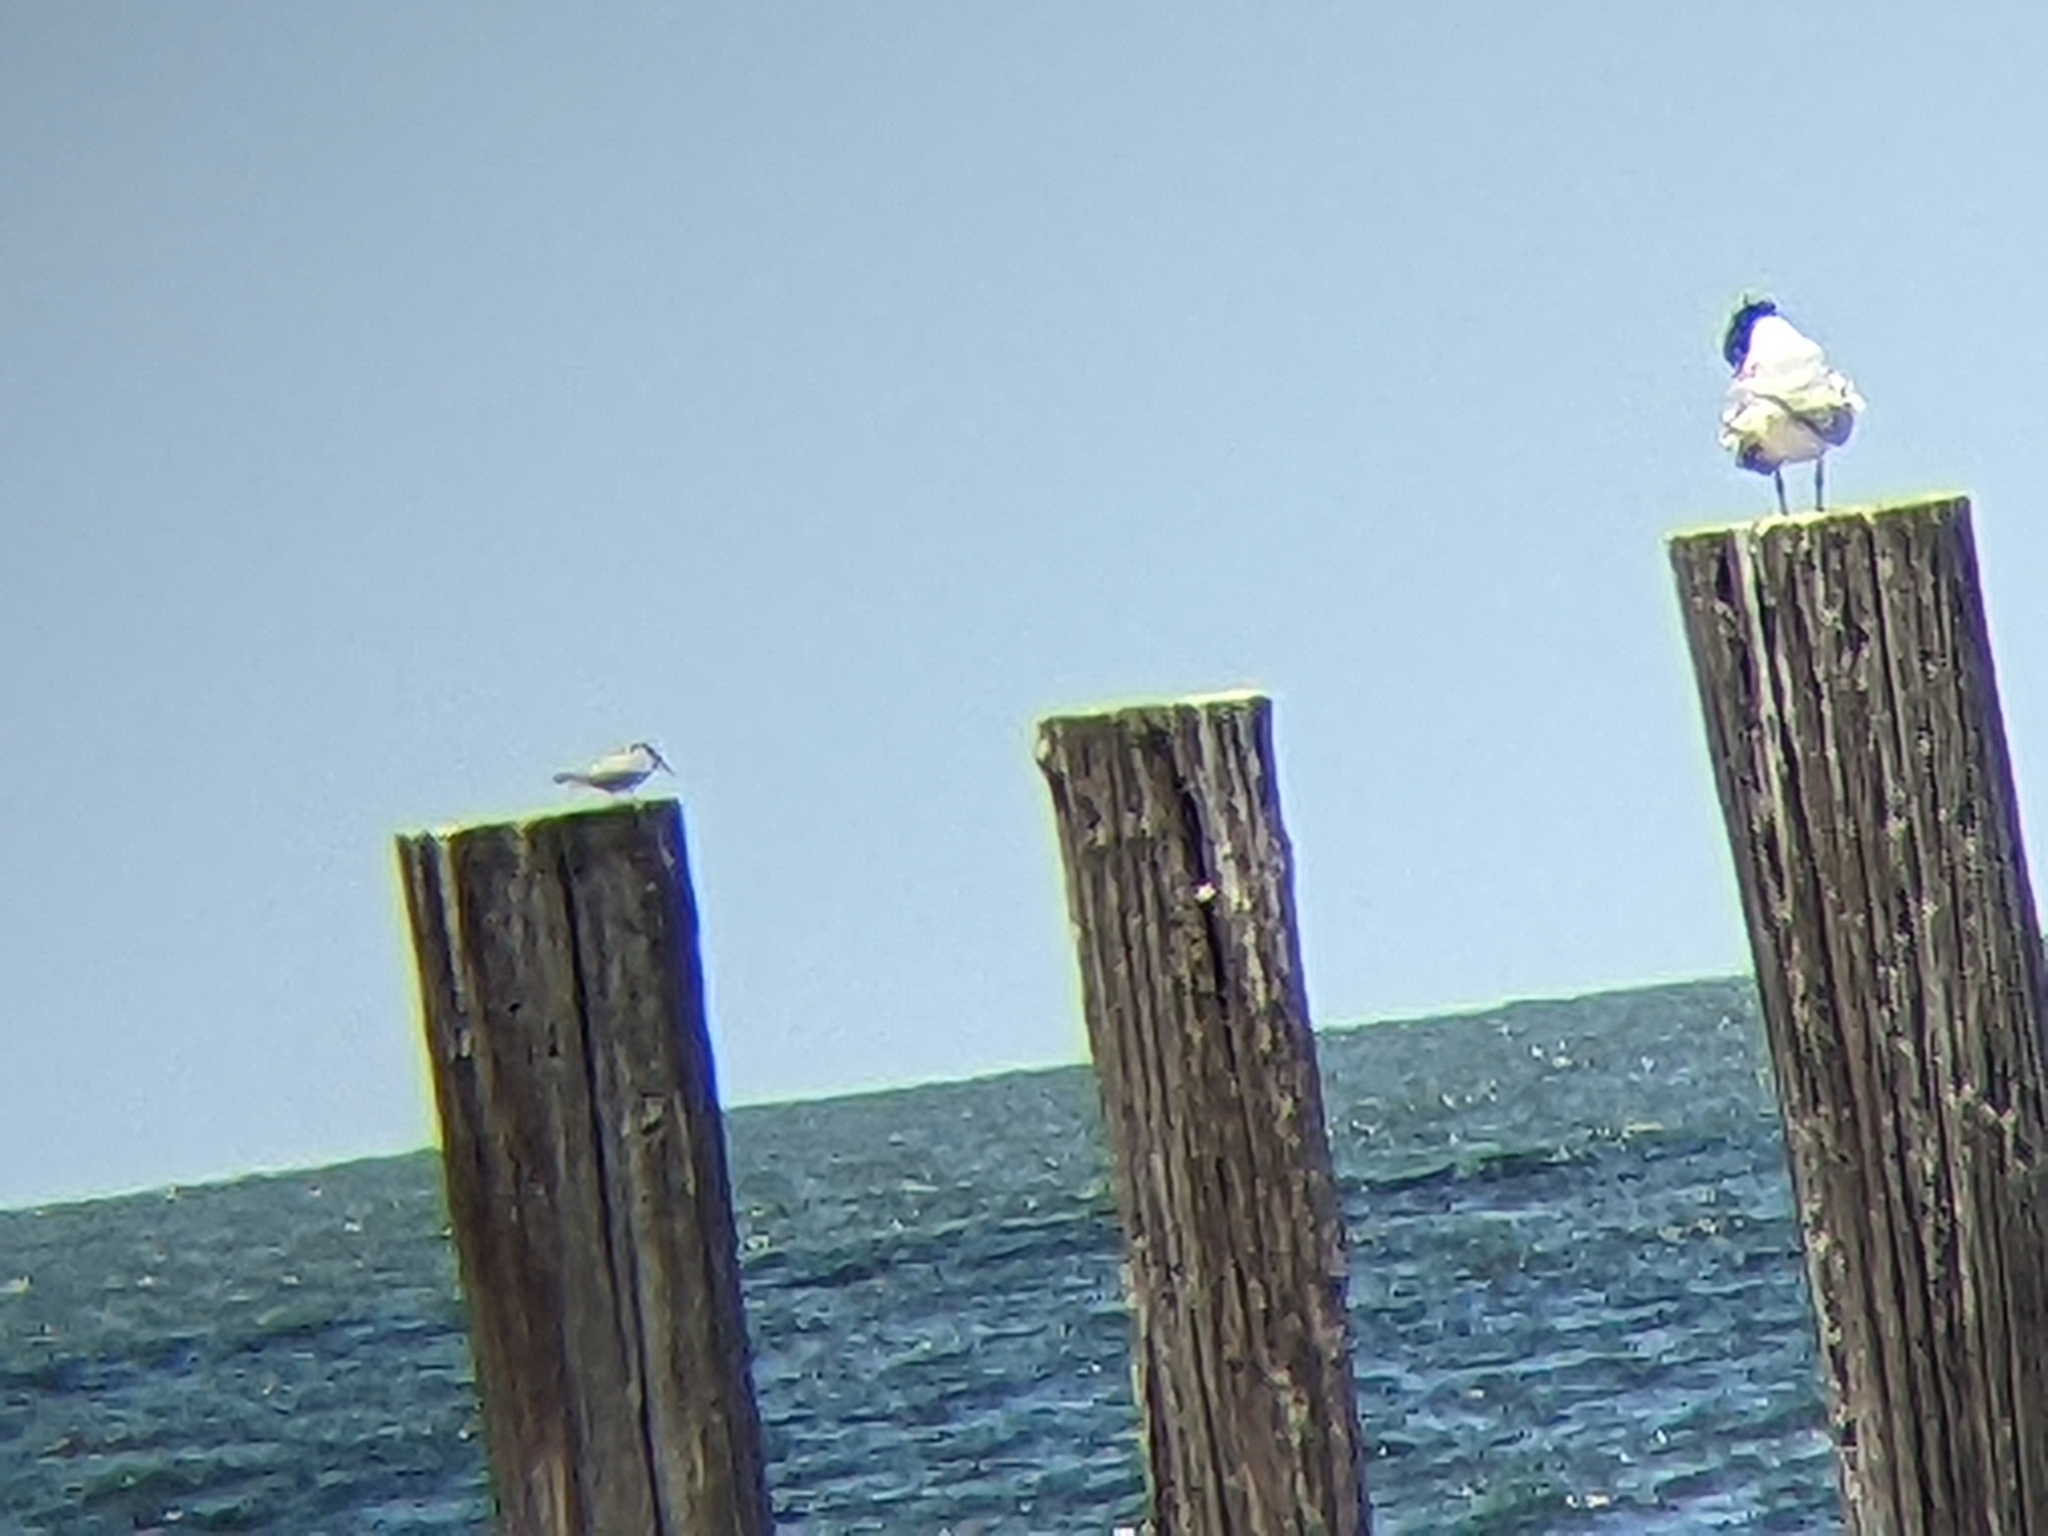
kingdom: Animalia
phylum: Chordata
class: Aves
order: Charadriiformes
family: Laridae
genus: Sternula
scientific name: Sternula antillarum
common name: Least tern
